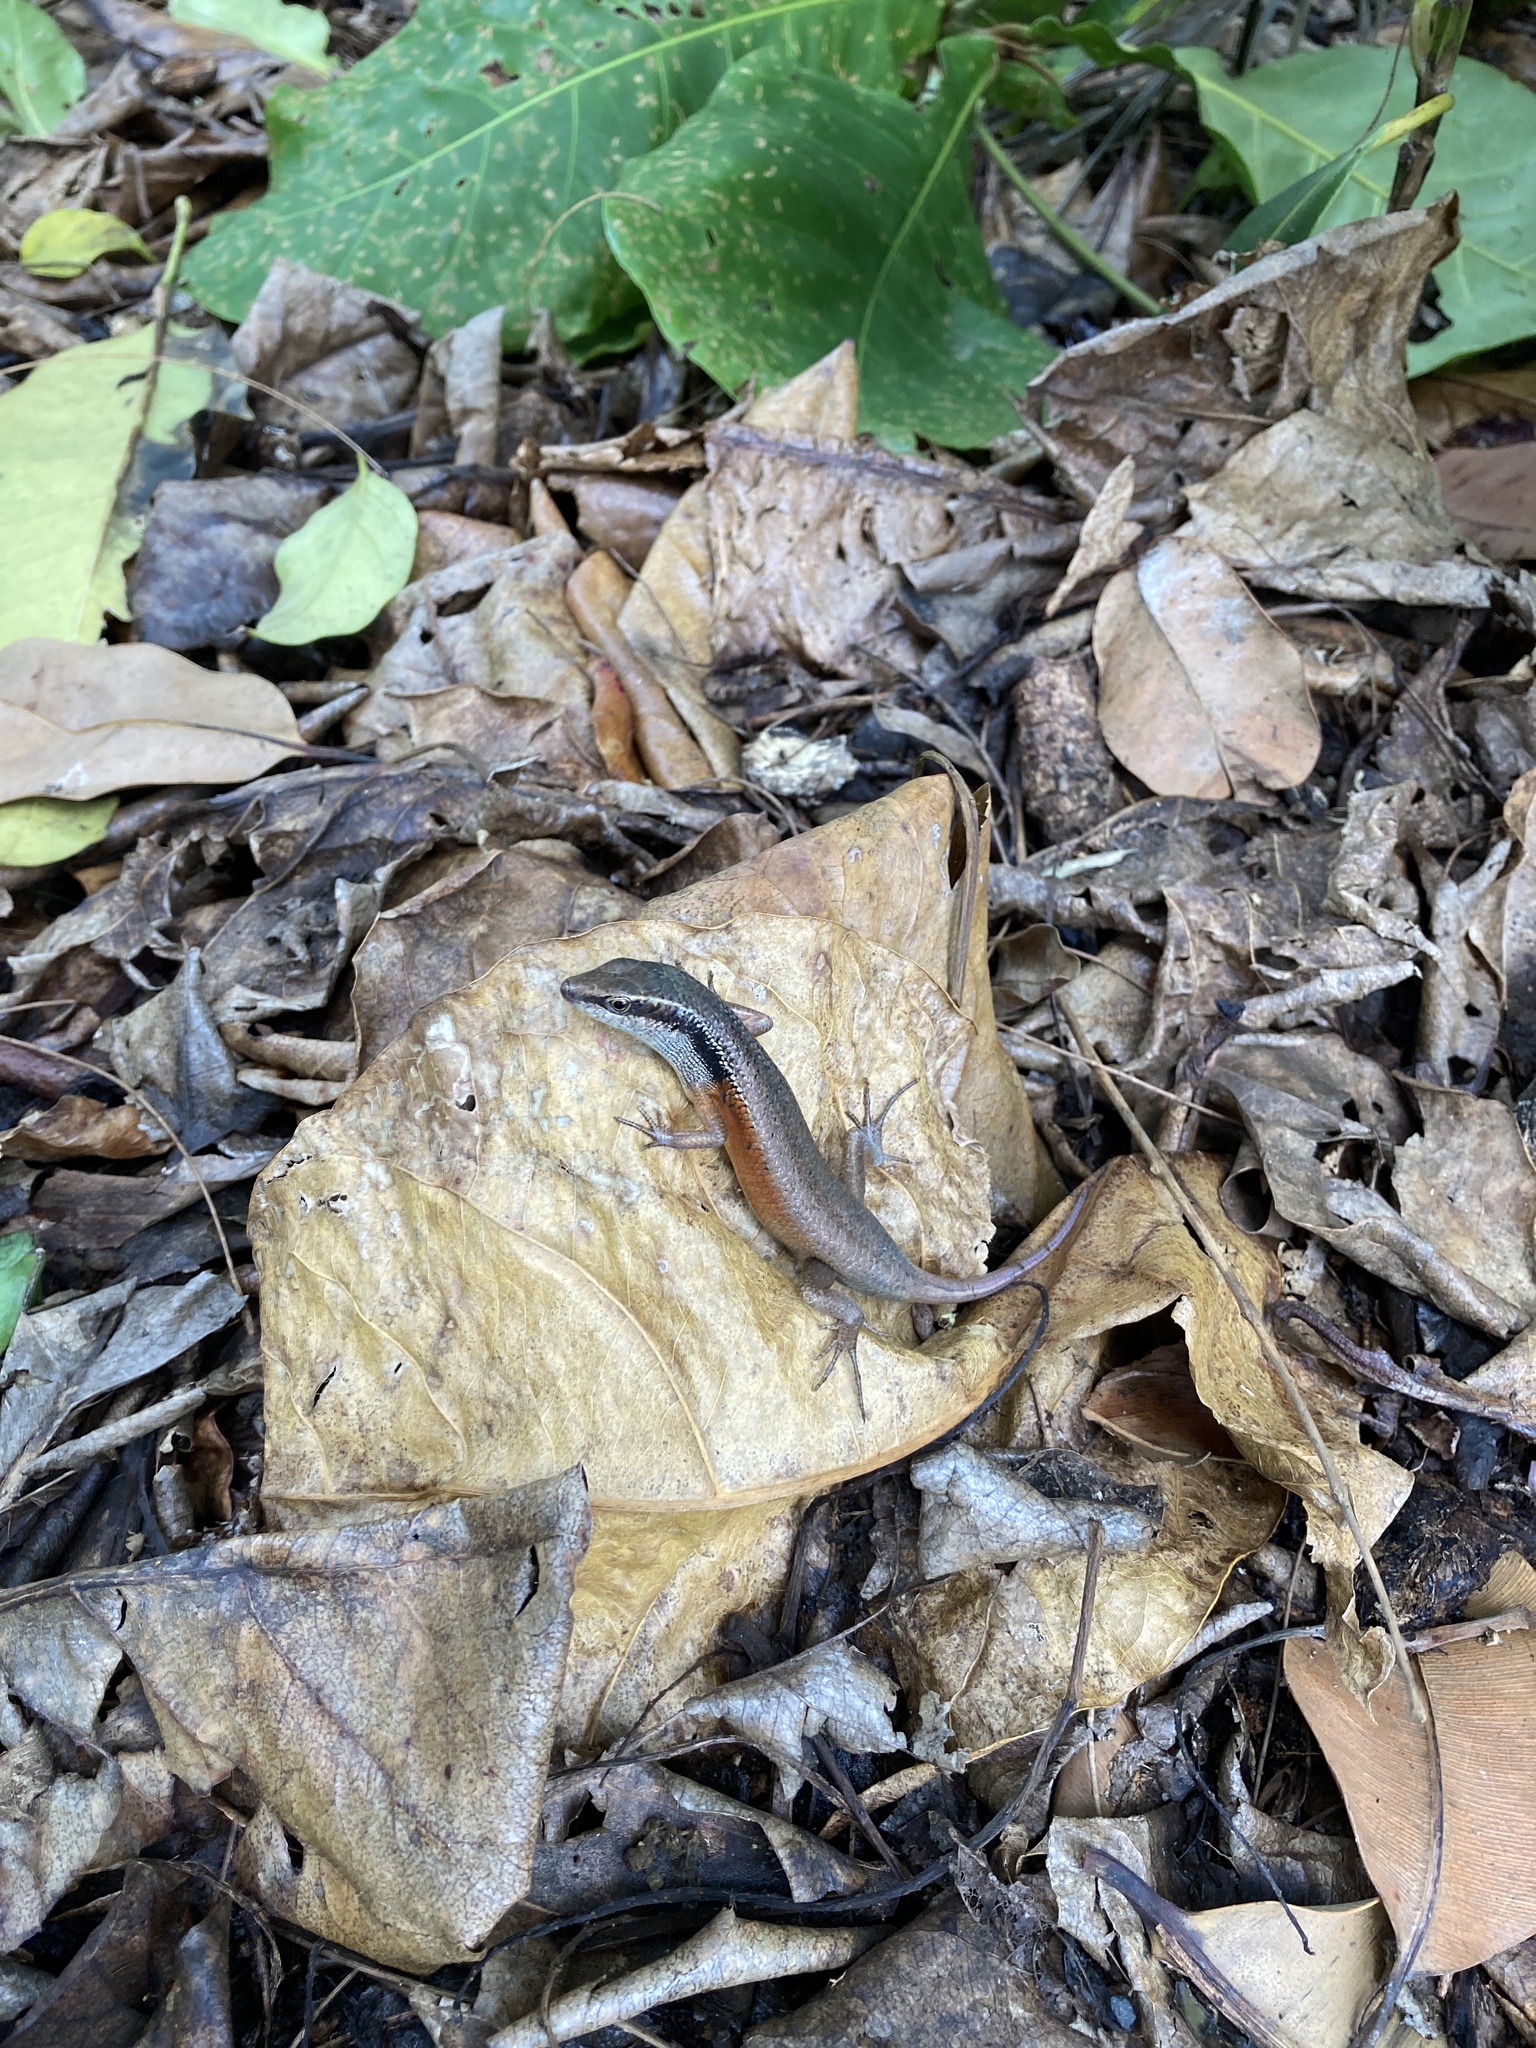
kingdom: Animalia
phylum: Chordata
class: Squamata
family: Scincidae
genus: Carlia
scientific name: Carlia longipes
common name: Closed-litter rainbow-skink
